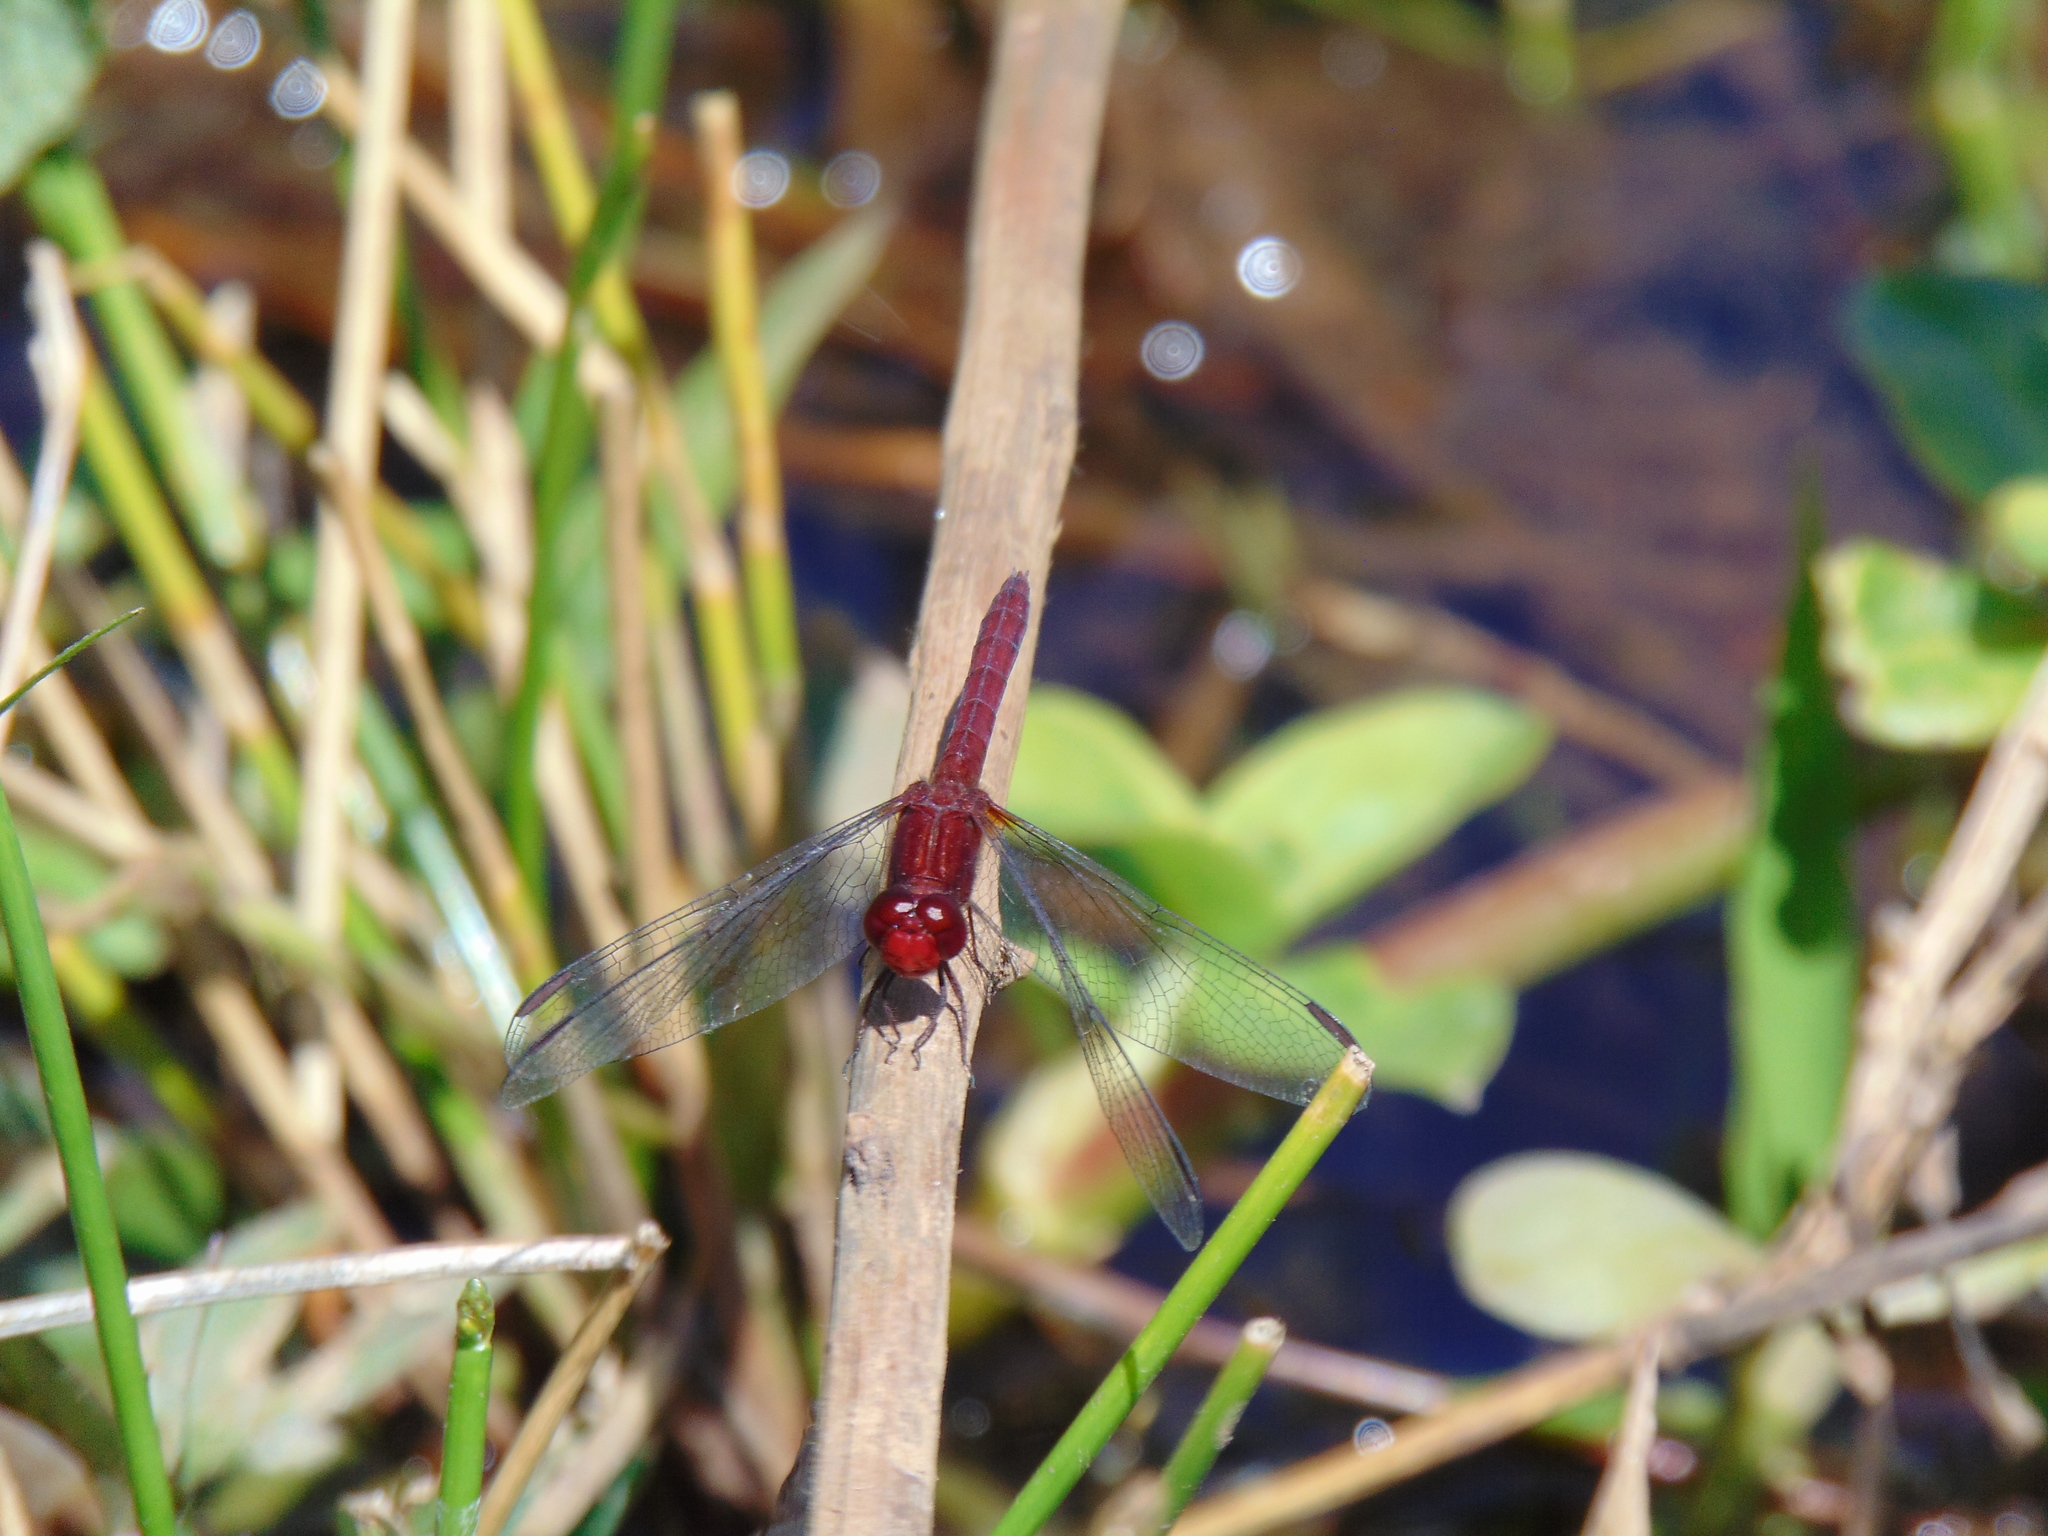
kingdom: Animalia
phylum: Arthropoda
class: Insecta
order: Odonata
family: Libellulidae
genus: Erythrodiplax
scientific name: Erythrodiplax fusca
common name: Red-faced dragonlet
